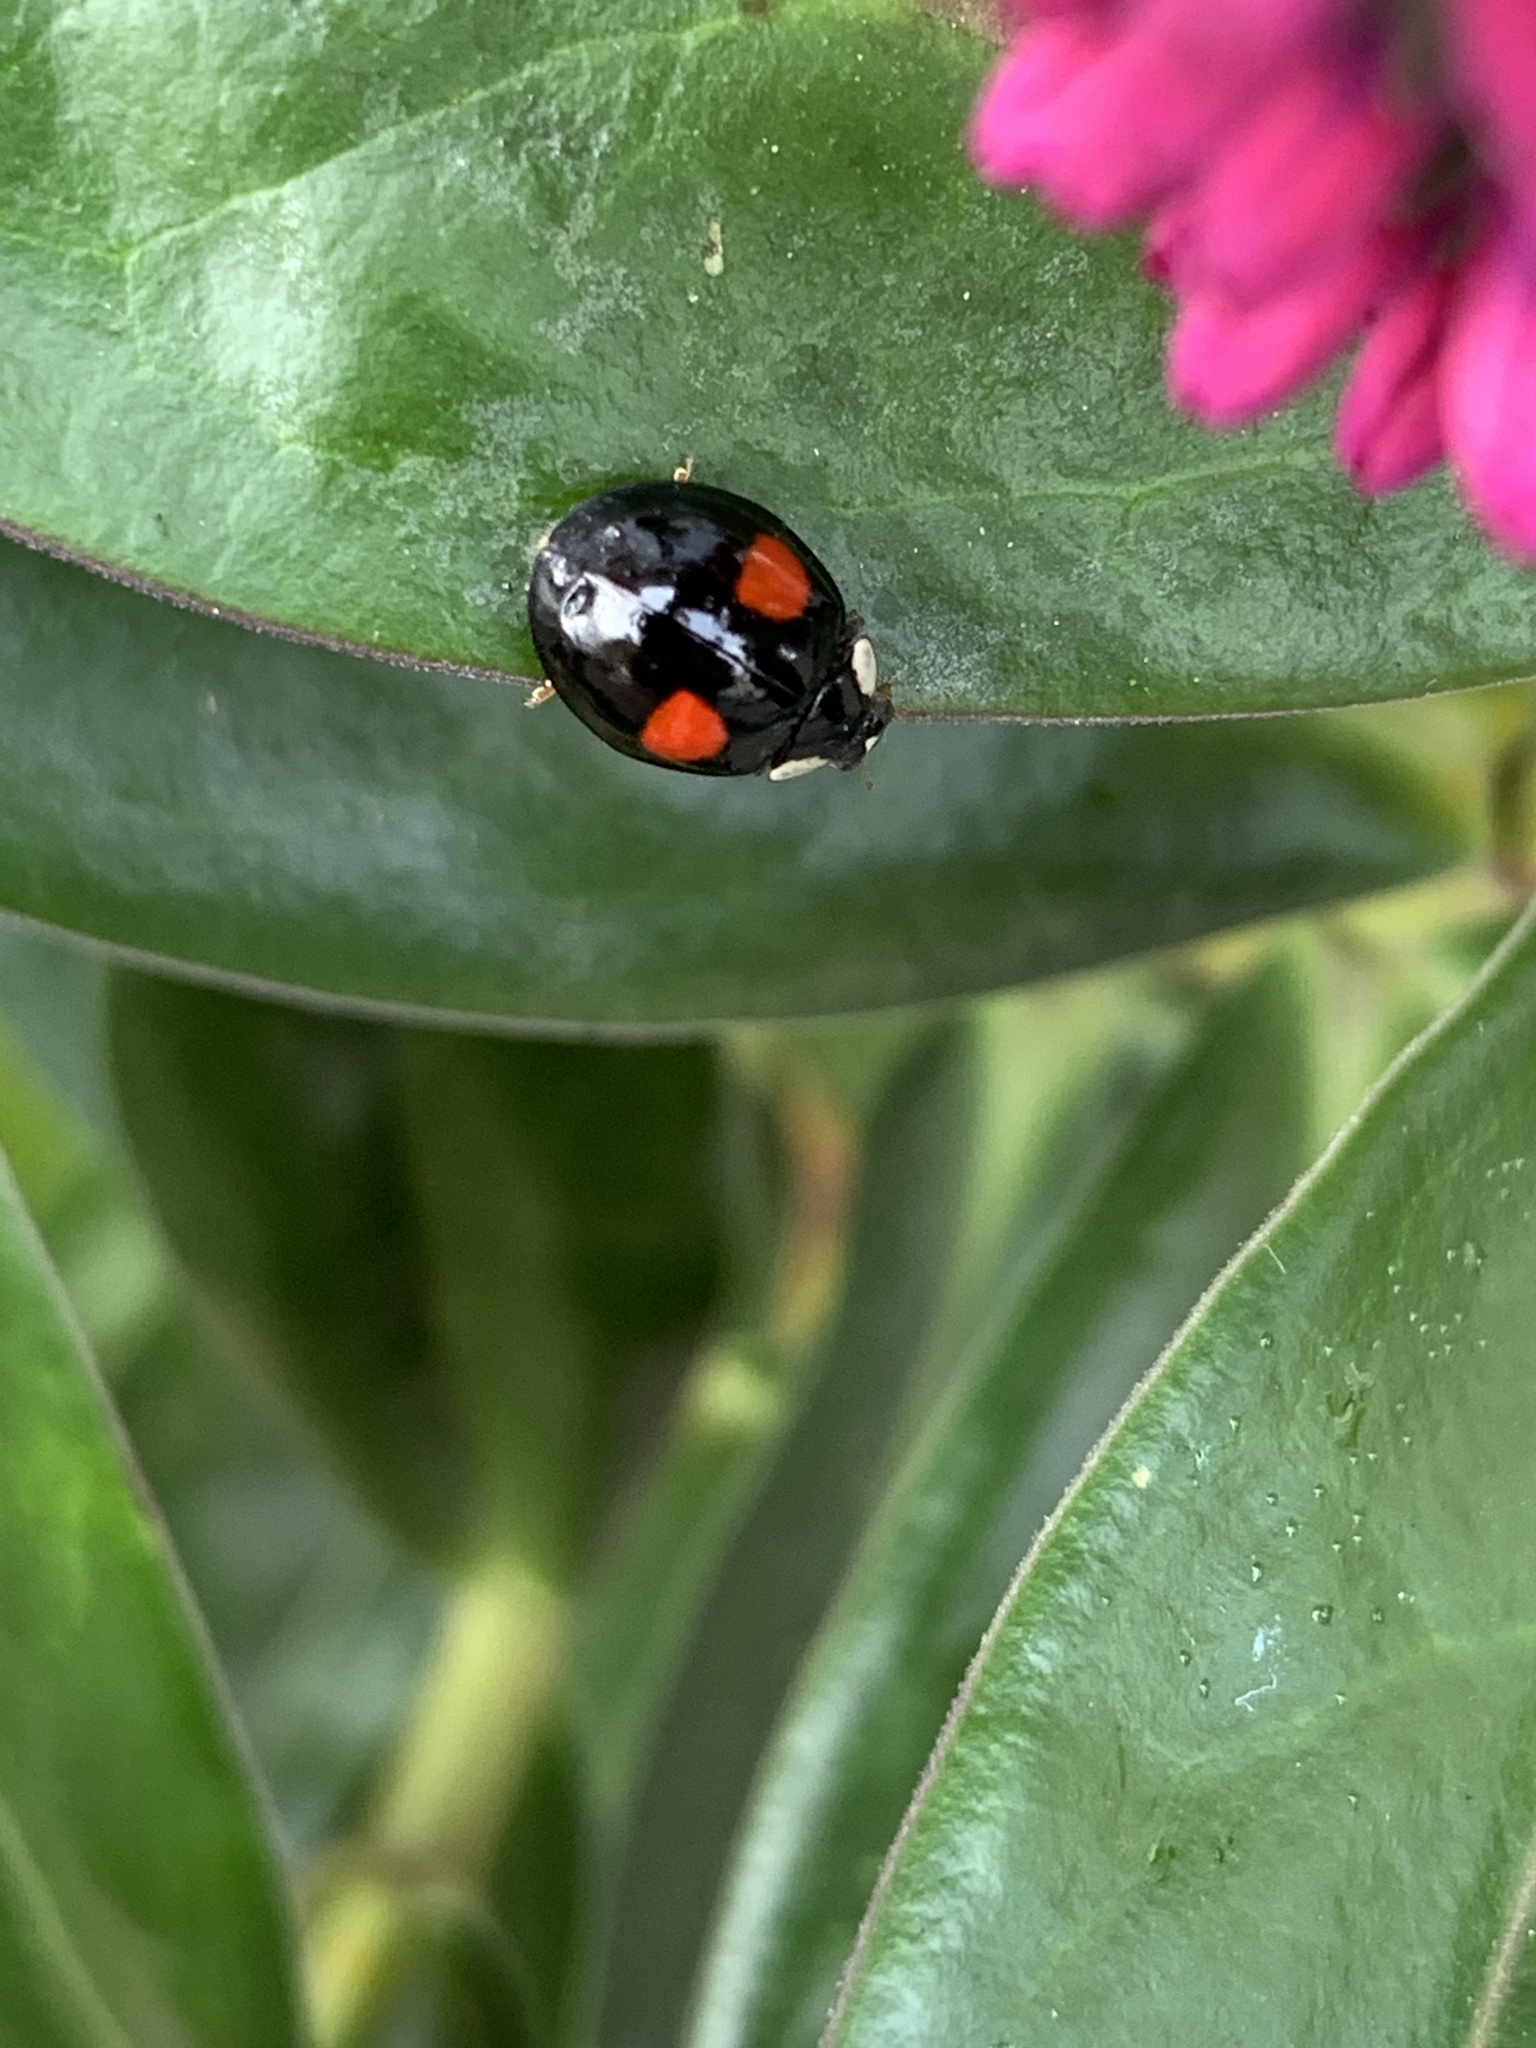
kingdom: Animalia
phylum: Arthropoda
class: Insecta
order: Coleoptera
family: Coccinellidae
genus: Harmonia
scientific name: Harmonia axyridis
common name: Harlequin ladybird
